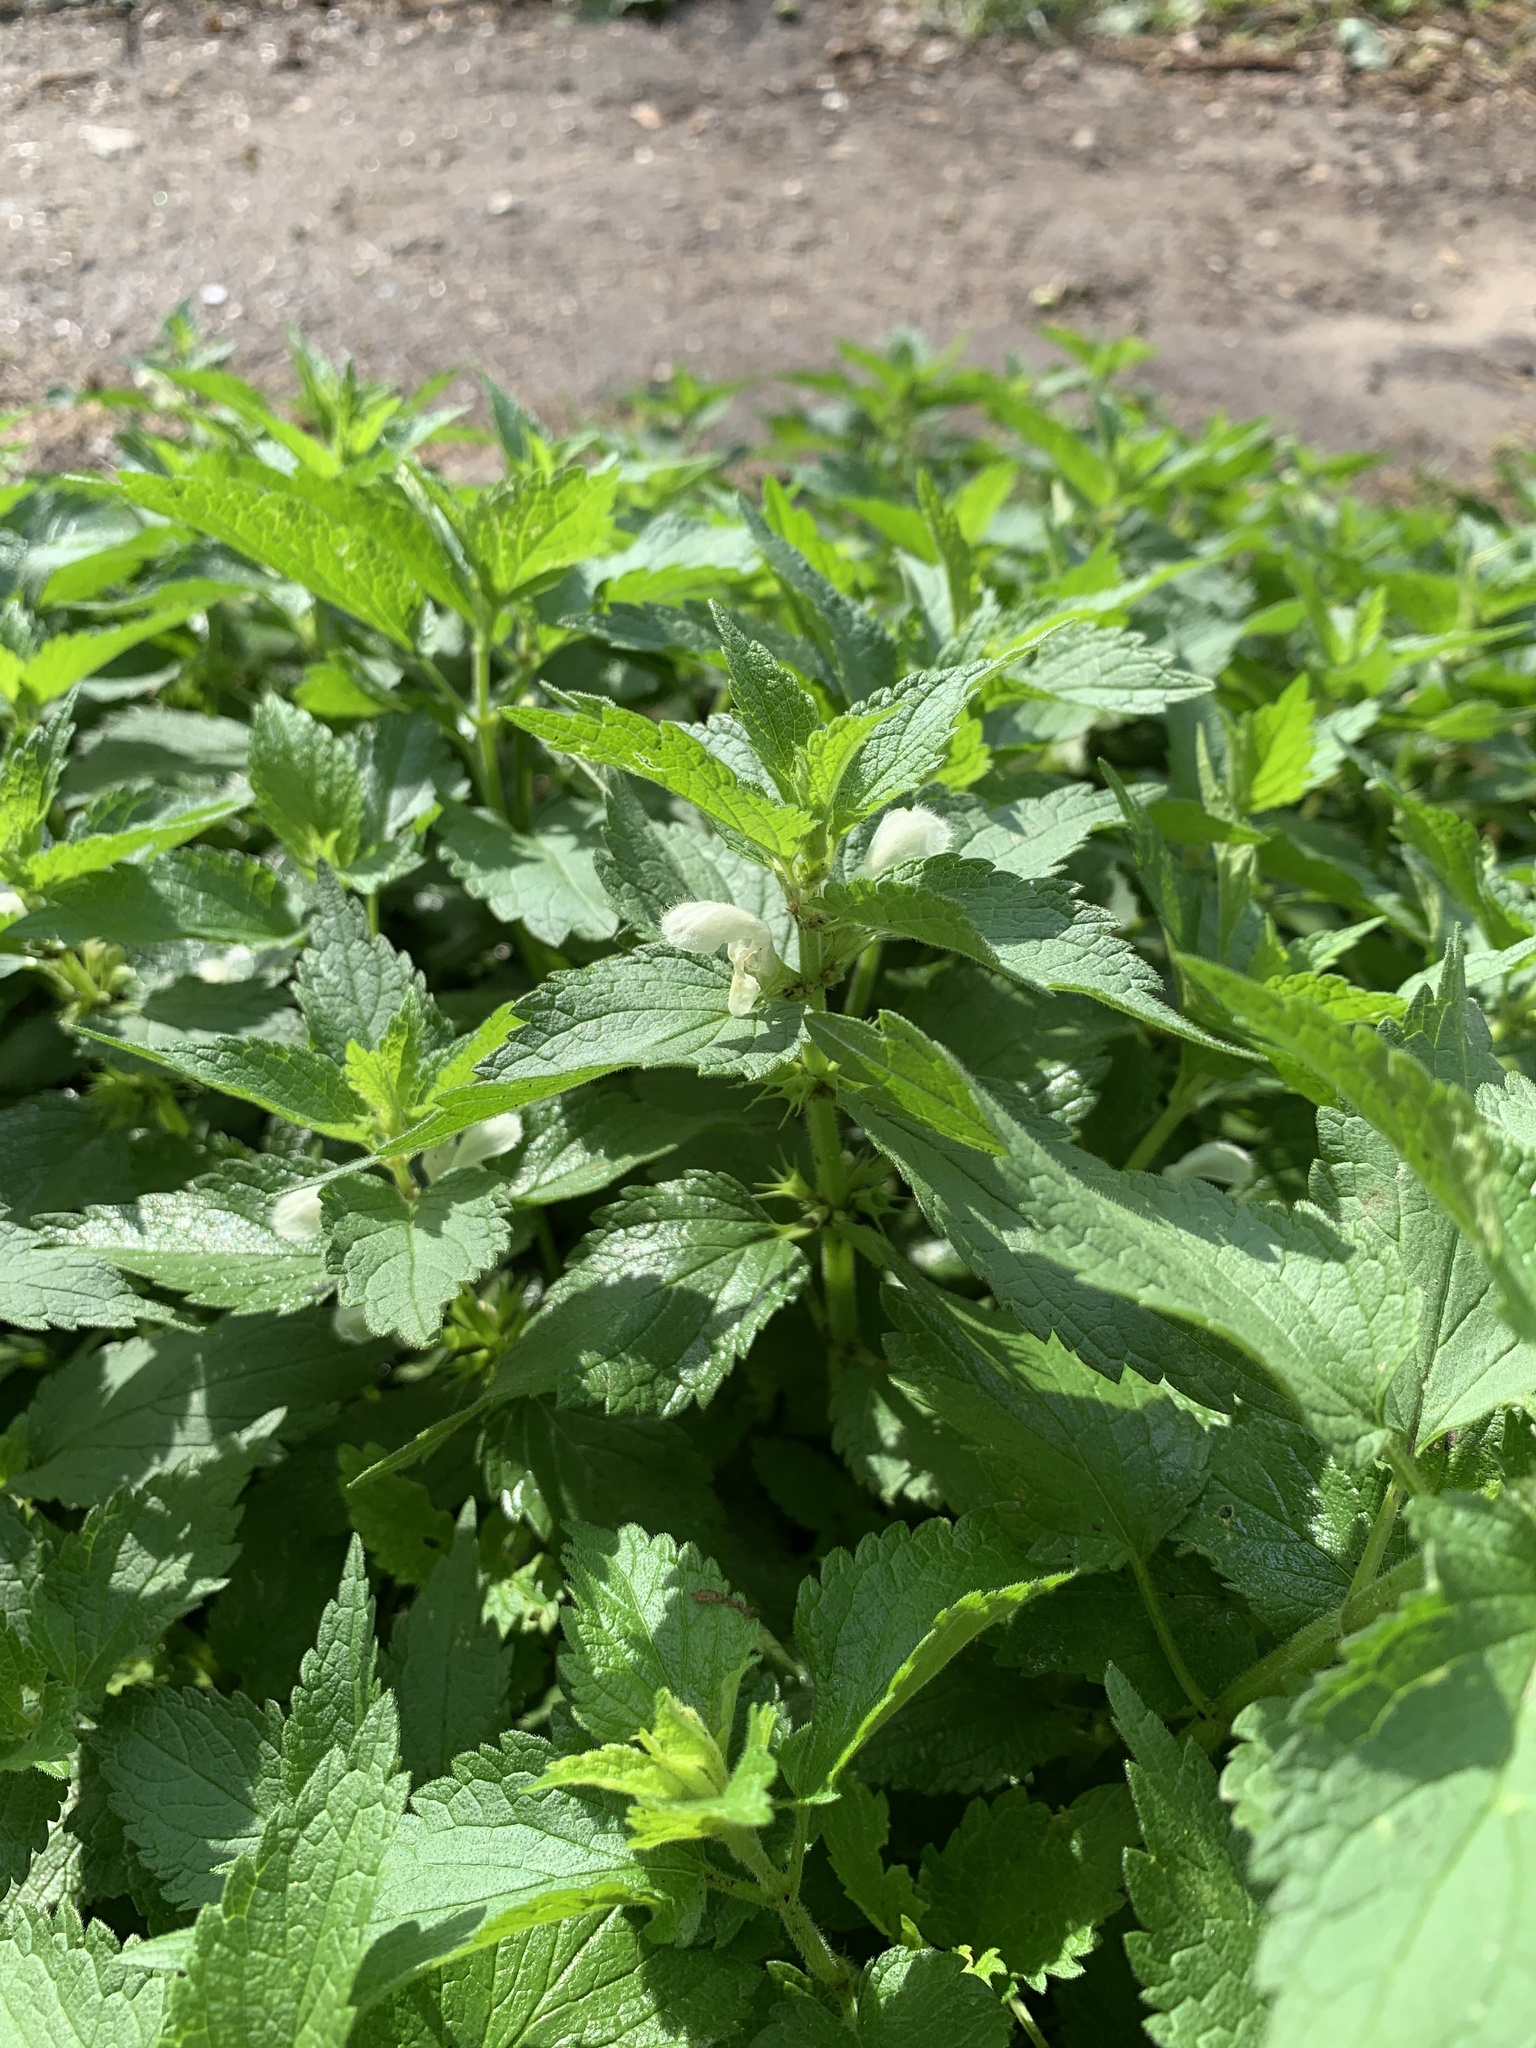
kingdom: Plantae
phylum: Tracheophyta
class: Magnoliopsida
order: Lamiales
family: Lamiaceae
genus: Lamium
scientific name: Lamium album
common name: White dead-nettle
